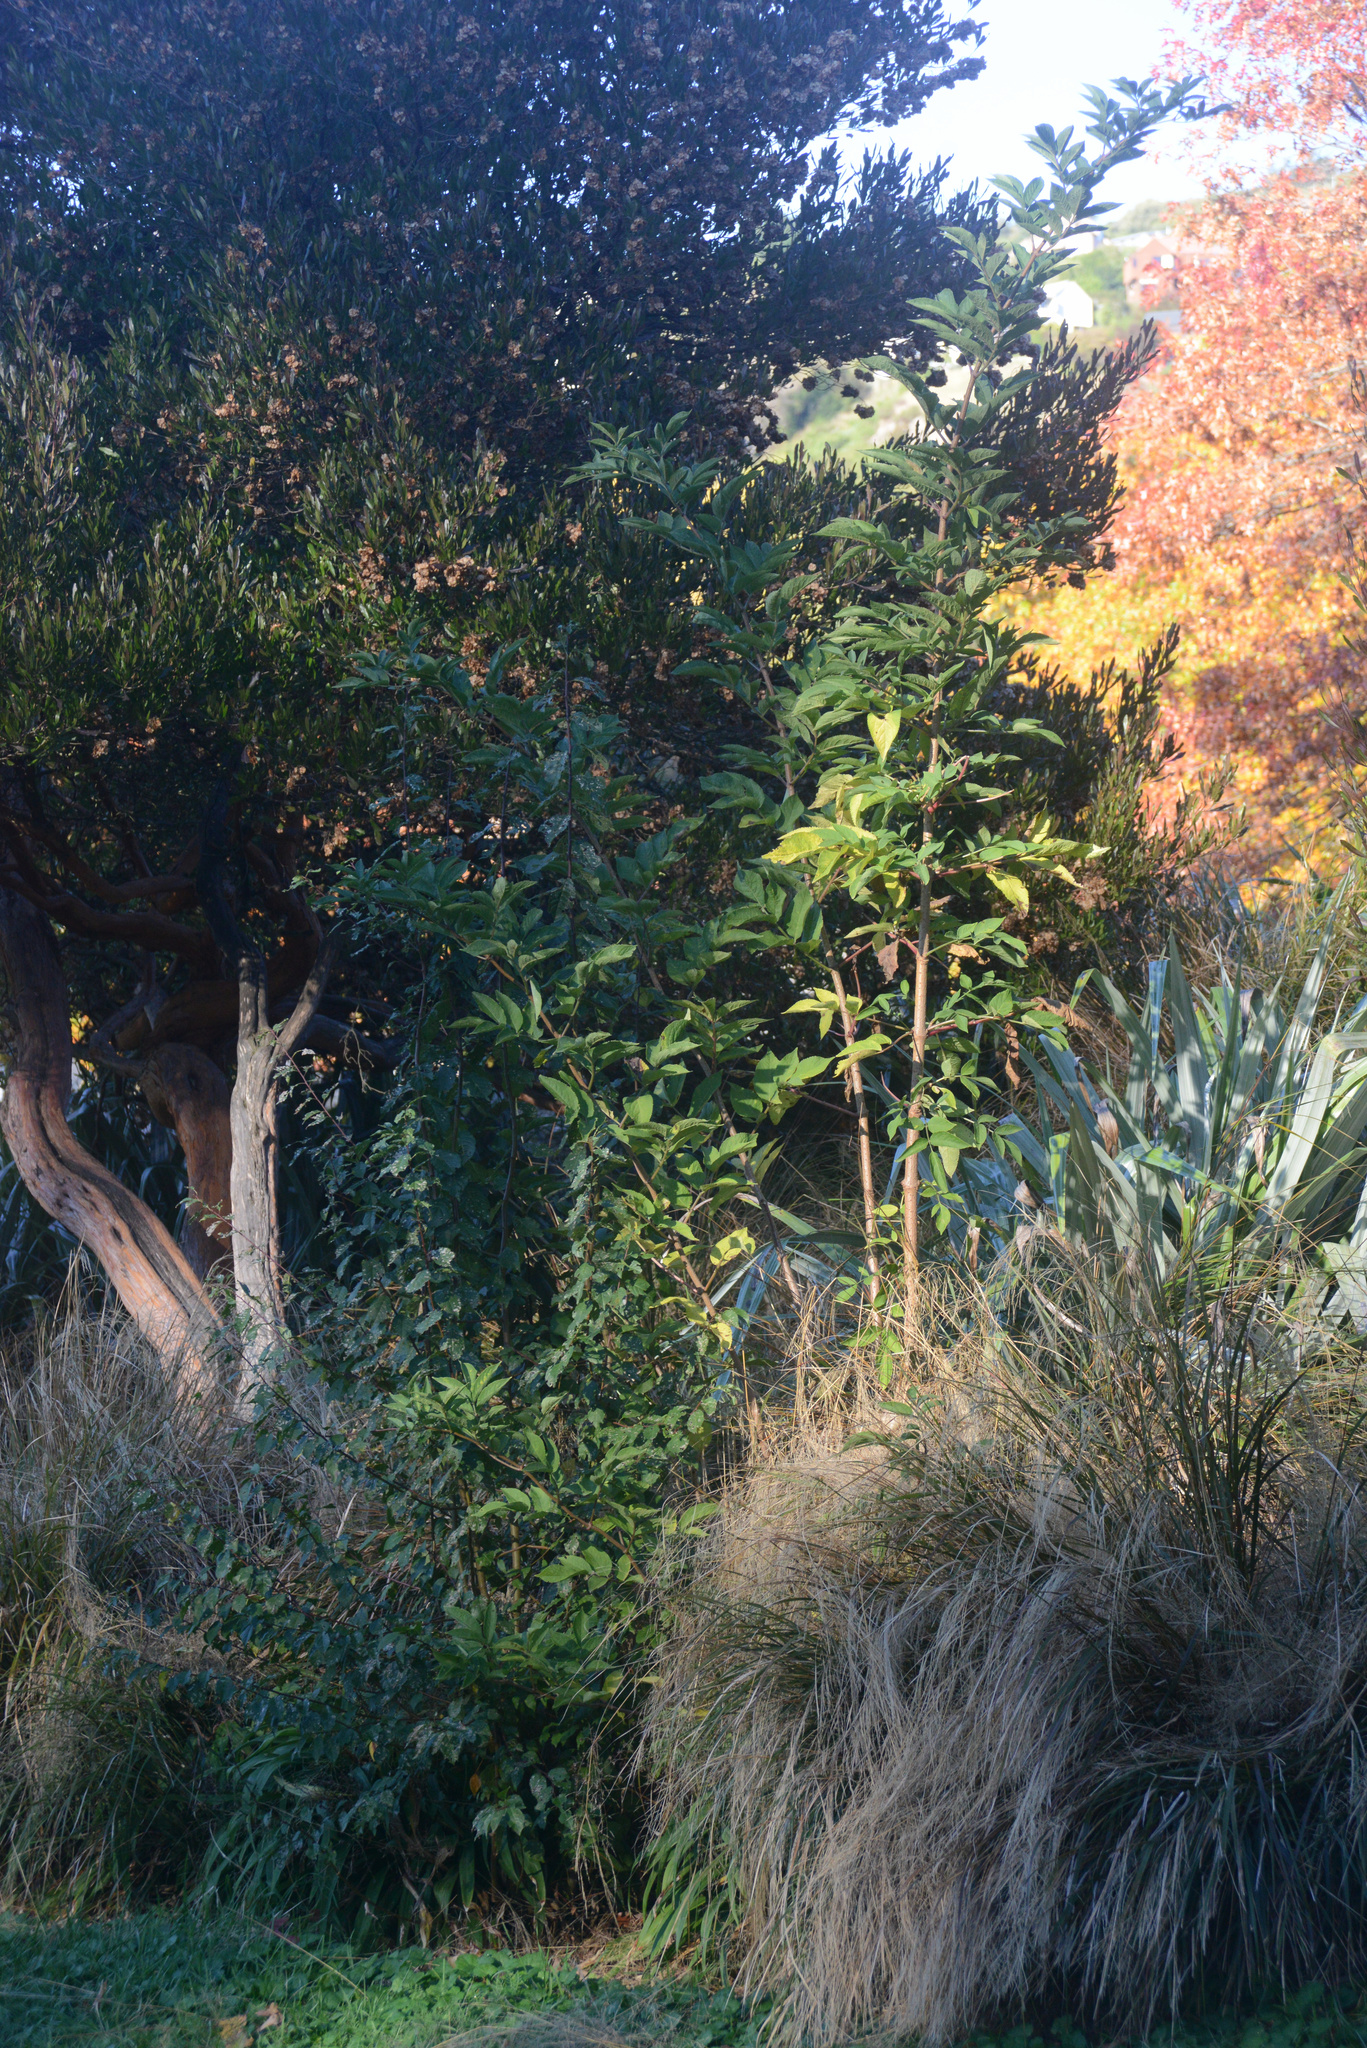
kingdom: Plantae
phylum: Tracheophyta
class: Magnoliopsida
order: Dipsacales
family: Viburnaceae
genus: Sambucus
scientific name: Sambucus nigra
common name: Elder
